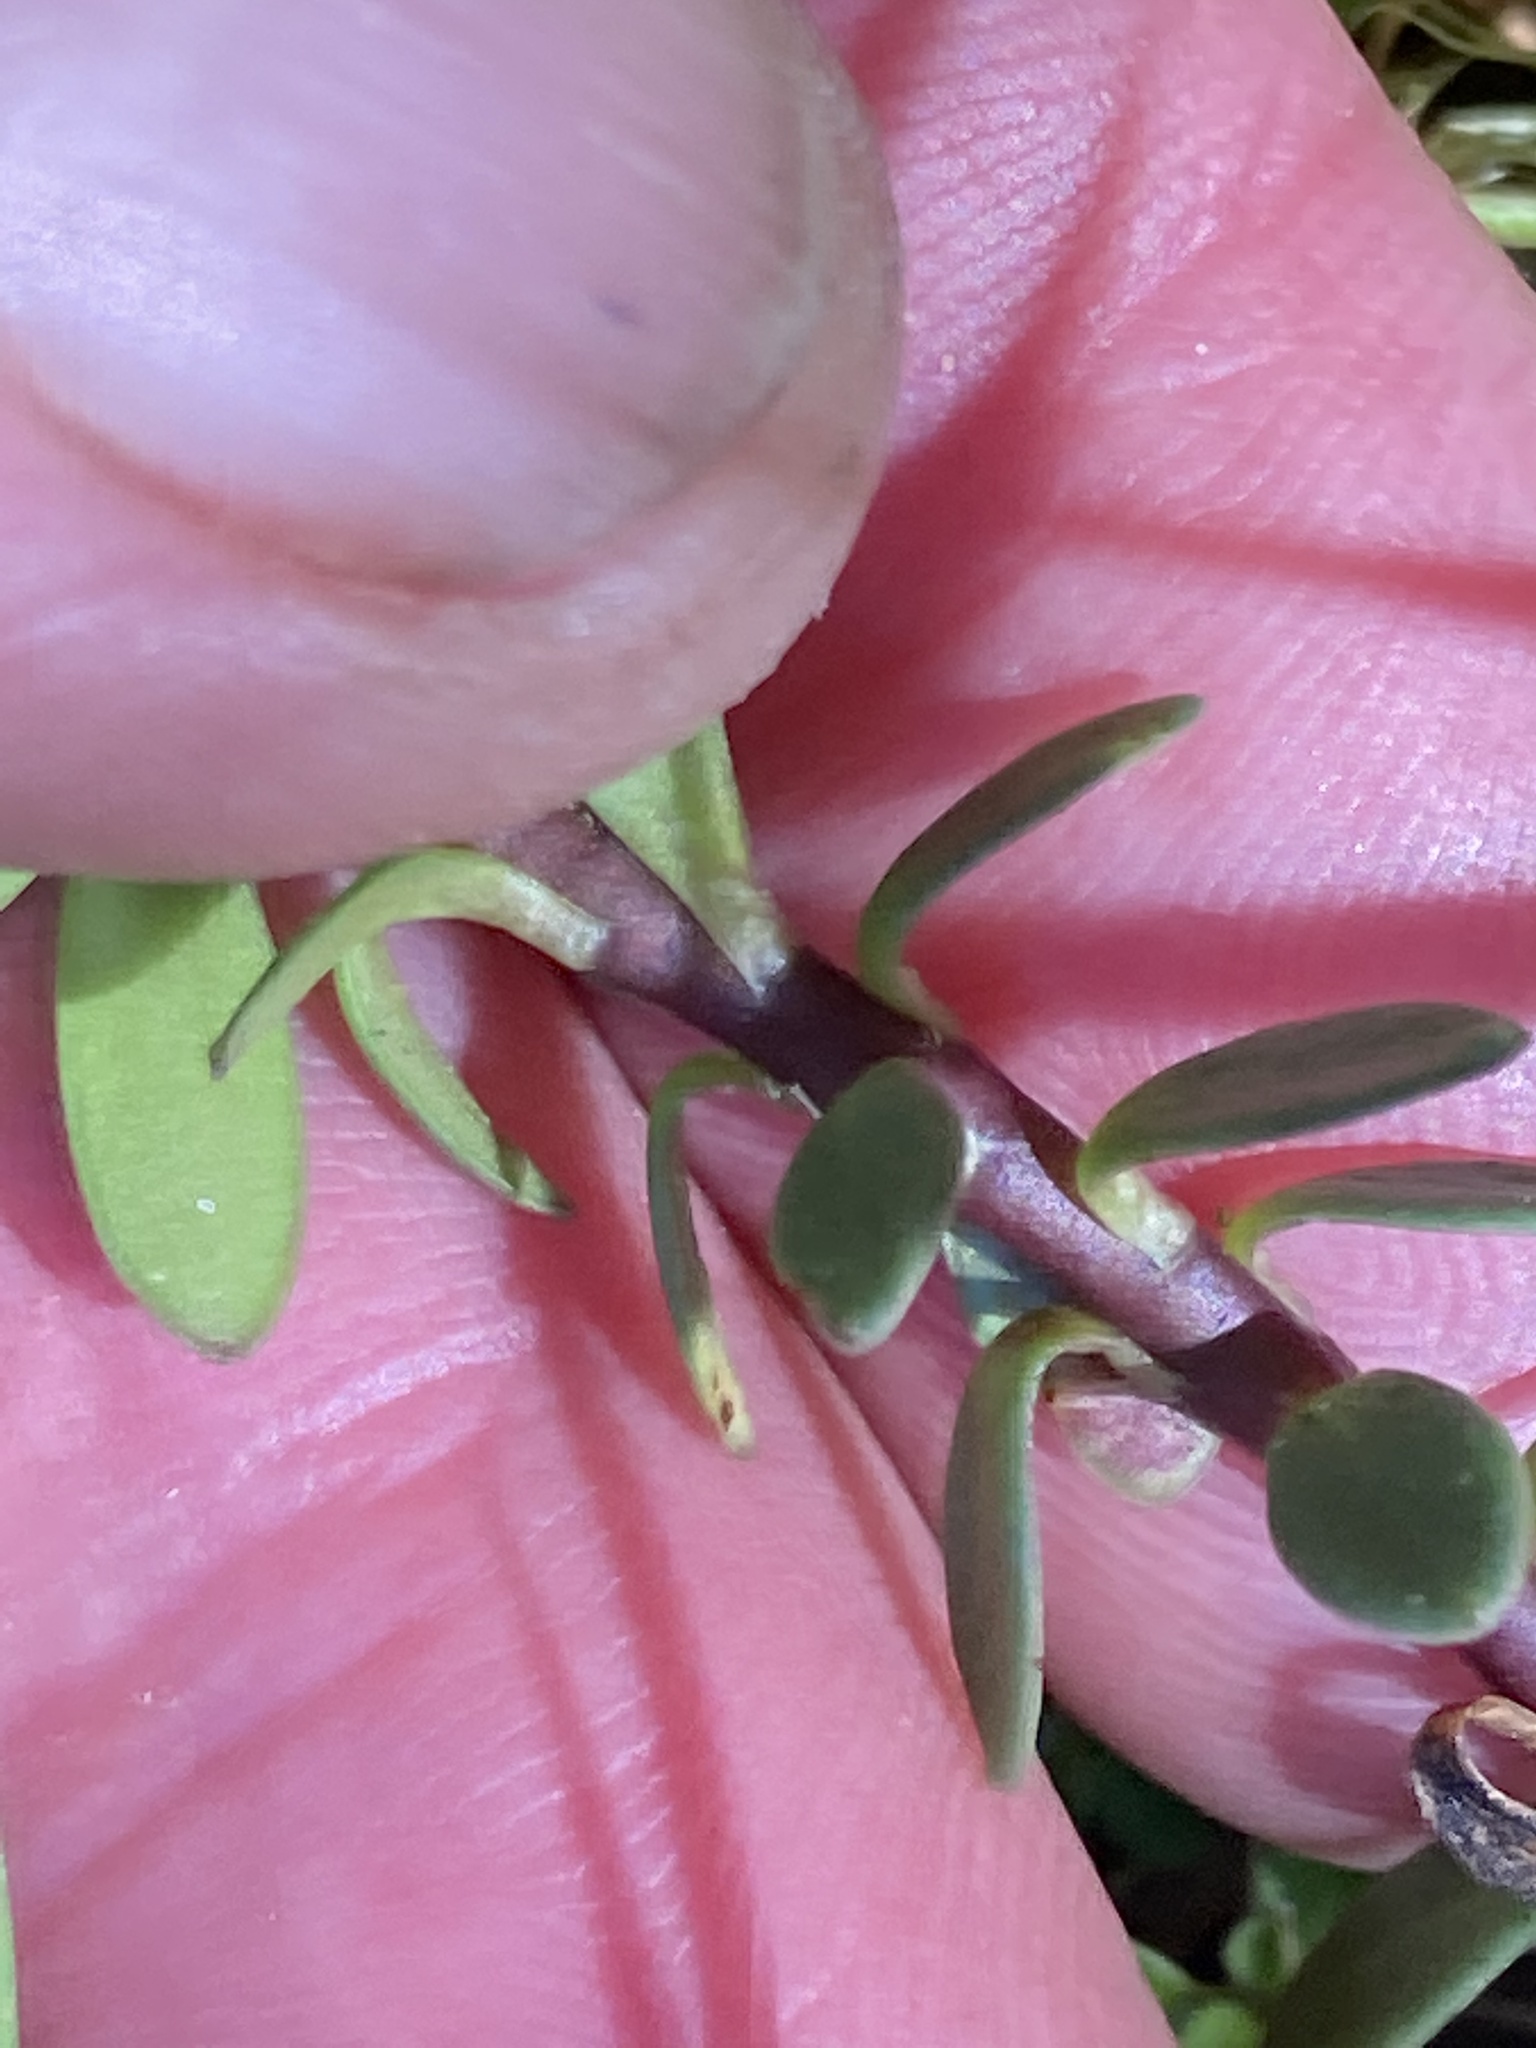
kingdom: Plantae
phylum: Tracheophyta
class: Magnoliopsida
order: Asterales
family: Stylidiaceae
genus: Forstera
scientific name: Forstera tenella
